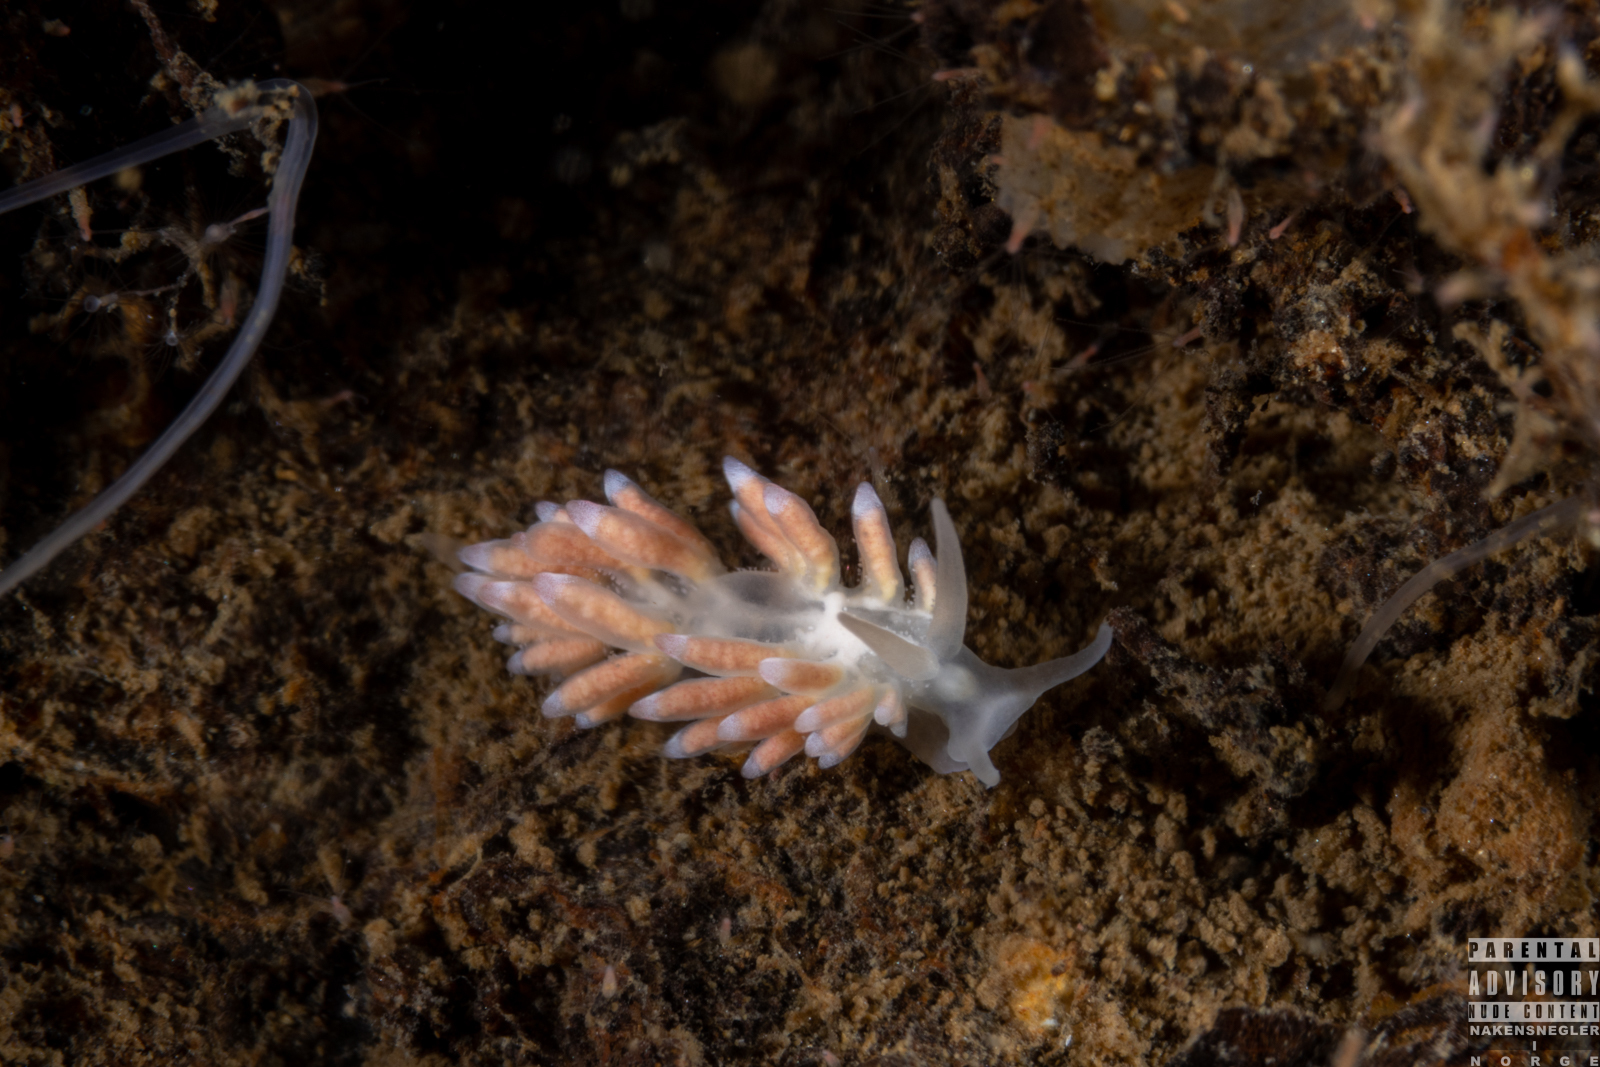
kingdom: Animalia
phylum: Mollusca
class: Gastropoda
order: Nudibranchia
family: Trinchesiidae
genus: Catriona
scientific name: Catriona aurantia
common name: Corange-tip cuthona
